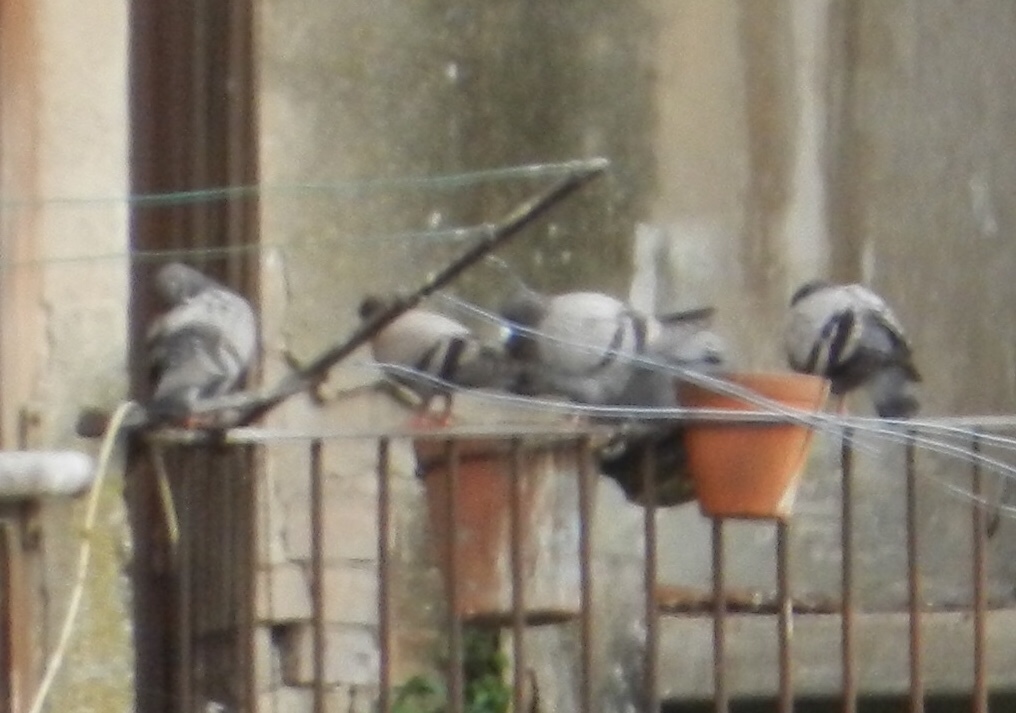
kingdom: Animalia
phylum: Chordata
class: Aves
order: Columbiformes
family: Columbidae
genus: Columba
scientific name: Columba livia
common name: Rock pigeon
